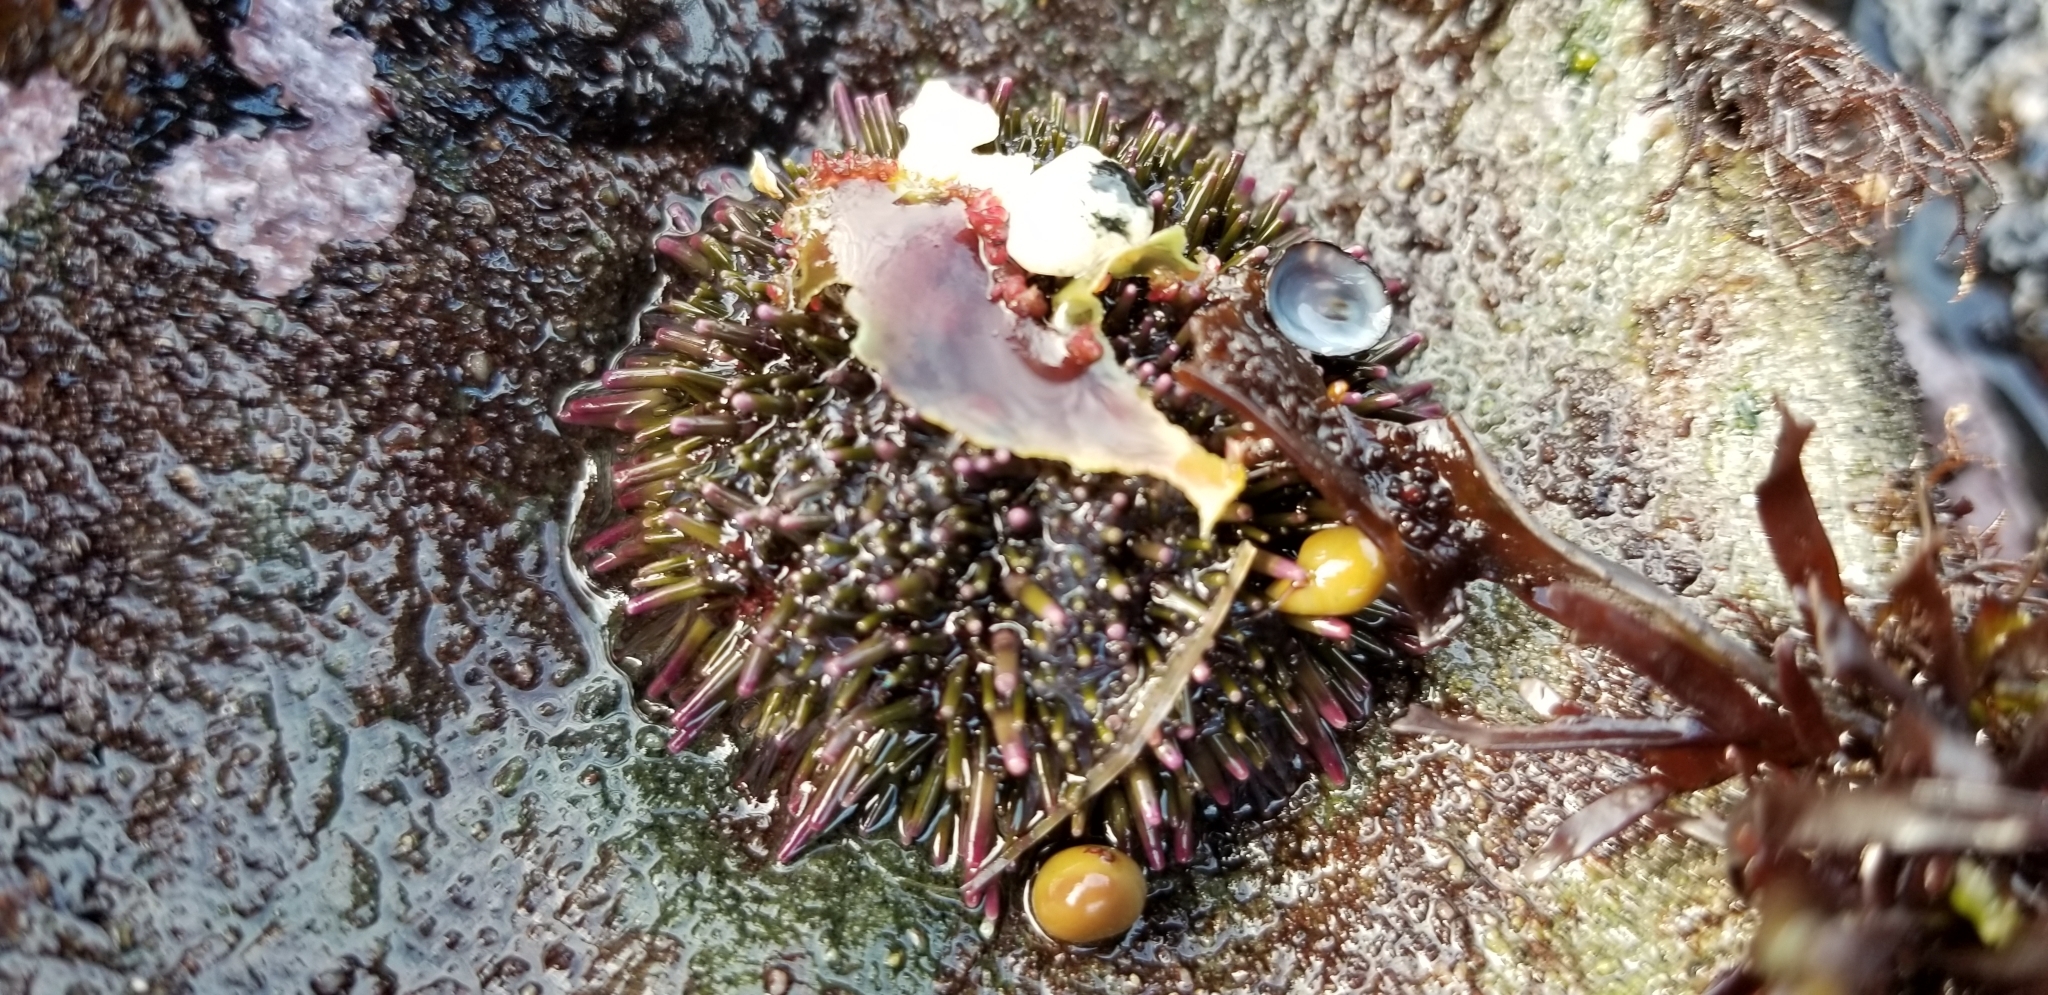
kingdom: Animalia
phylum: Echinodermata
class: Echinoidea
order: Camarodonta
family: Strongylocentrotidae
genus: Strongylocentrotus
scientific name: Strongylocentrotus purpuratus
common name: Purple sea urchin
